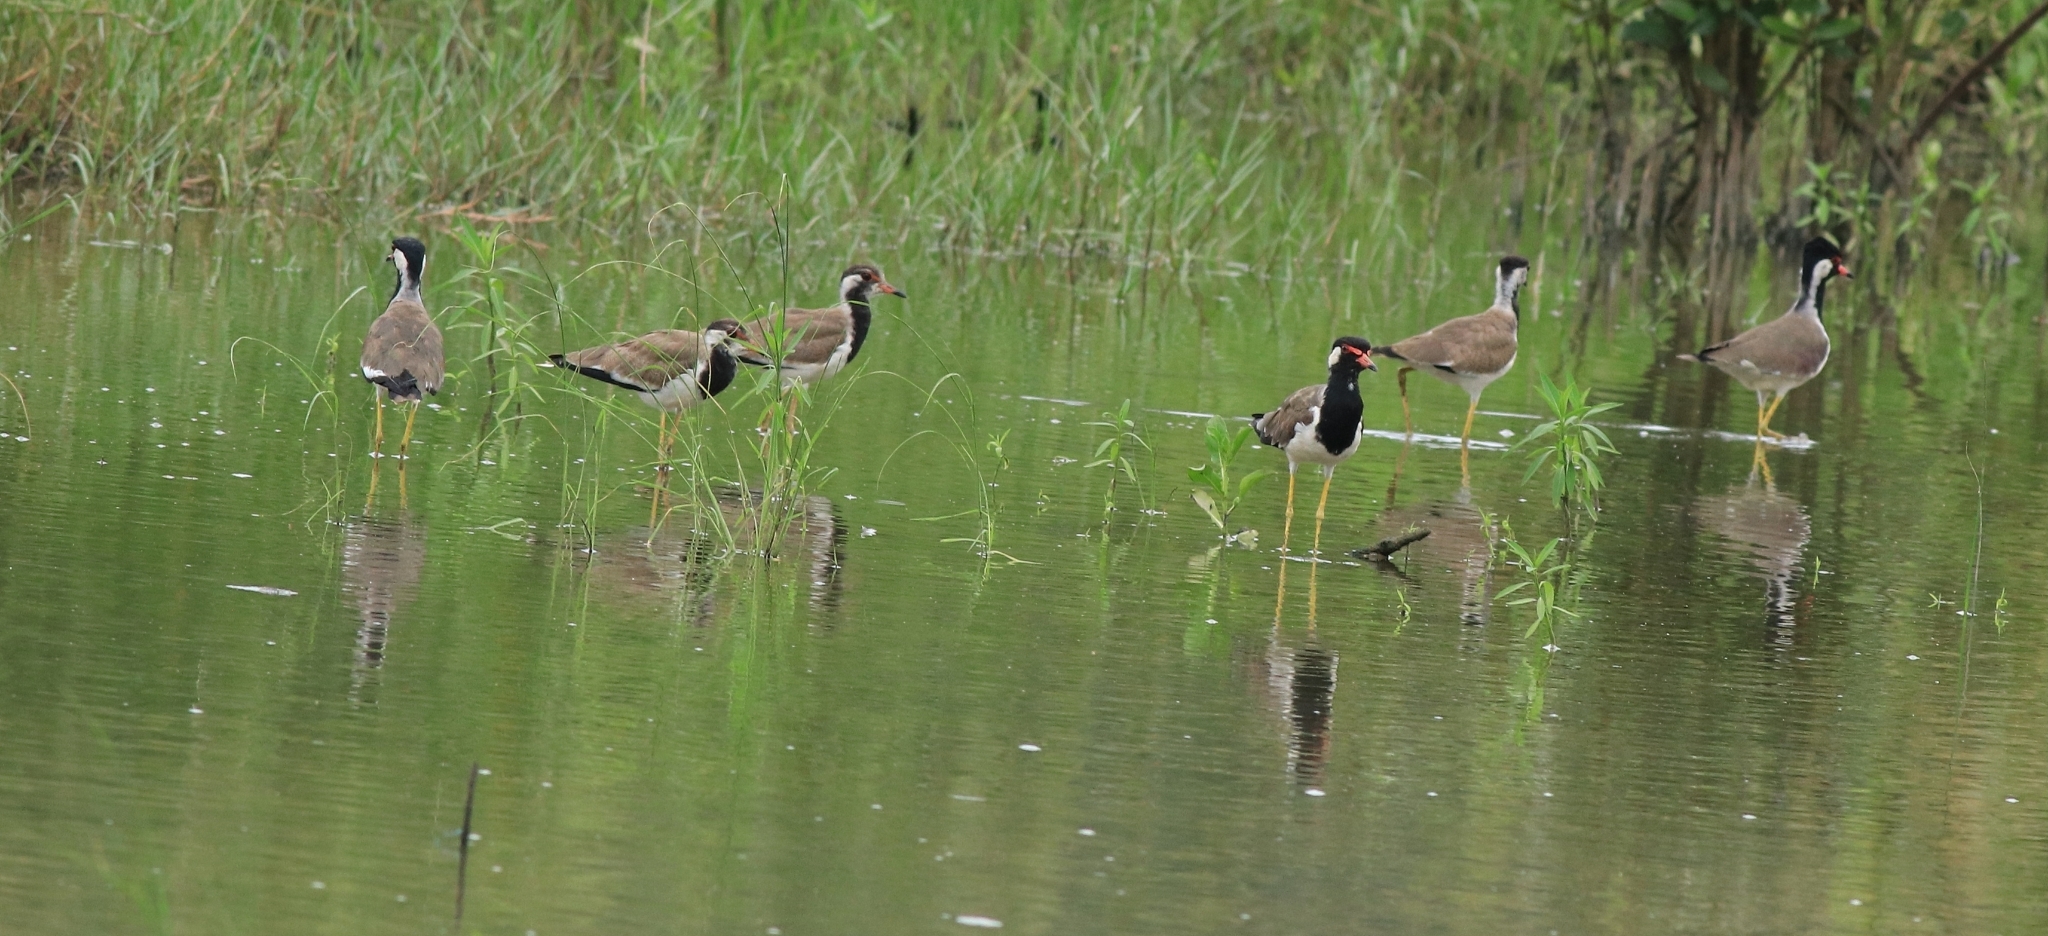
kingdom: Animalia
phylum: Chordata
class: Aves
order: Charadriiformes
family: Charadriidae
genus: Vanellus
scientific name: Vanellus indicus
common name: Red-wattled lapwing
